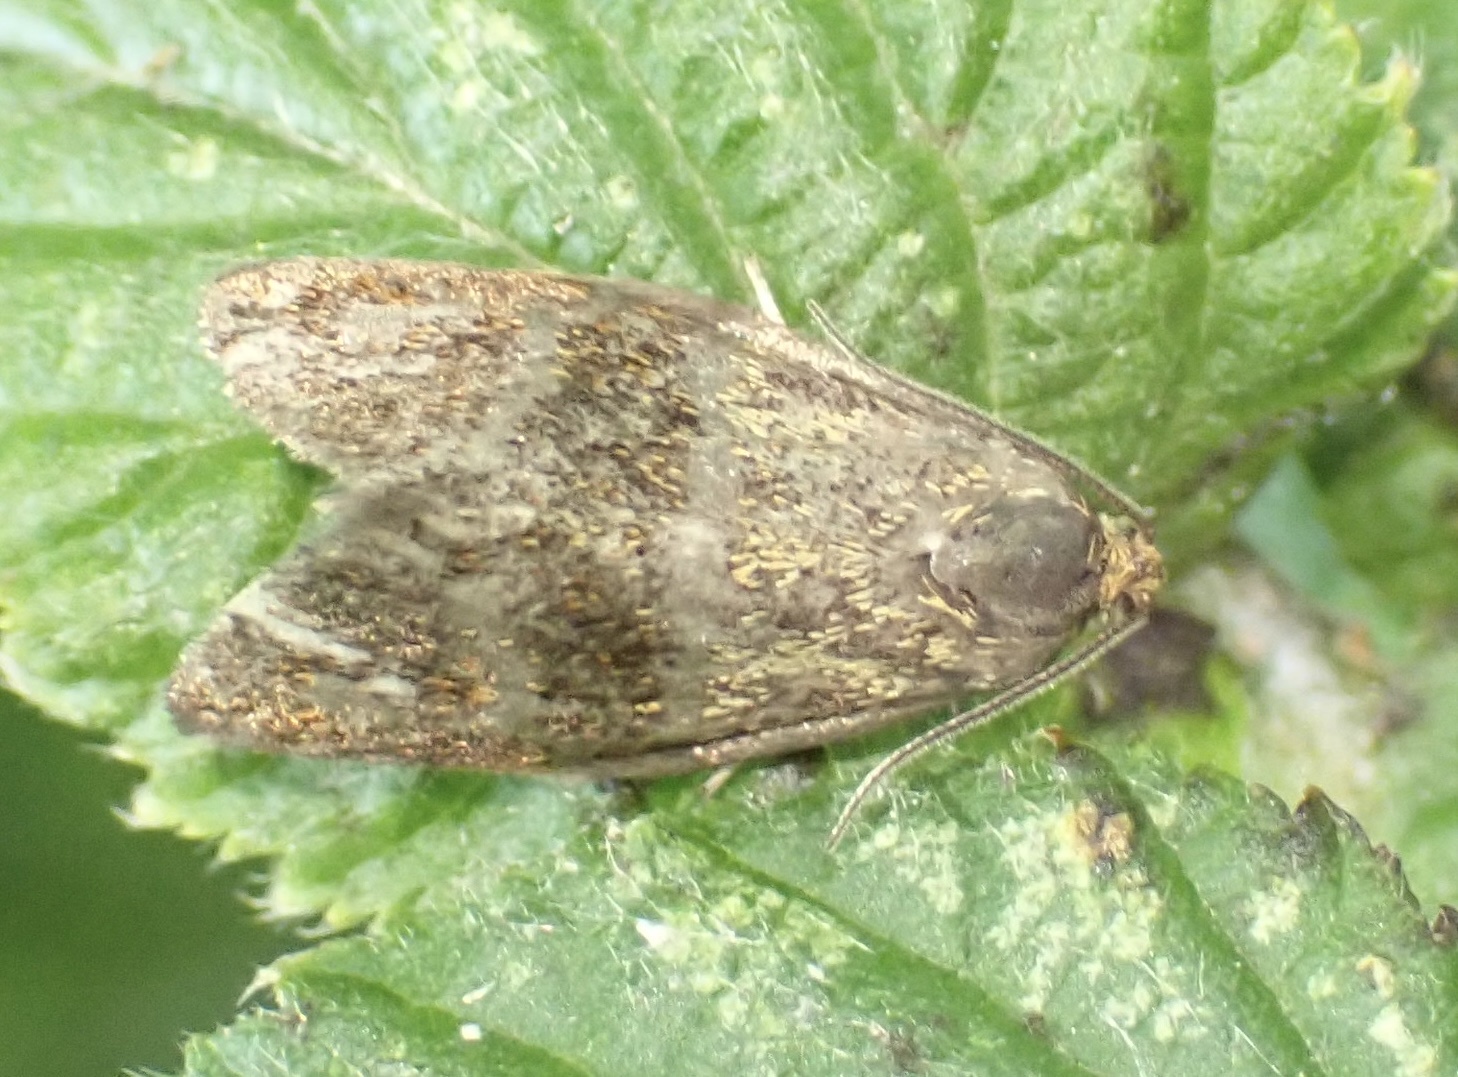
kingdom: Animalia
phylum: Arthropoda
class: Insecta
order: Lepidoptera
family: Tortricidae
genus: Ptycholoma
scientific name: Ptycholoma lecheana
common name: Leches twist moth
